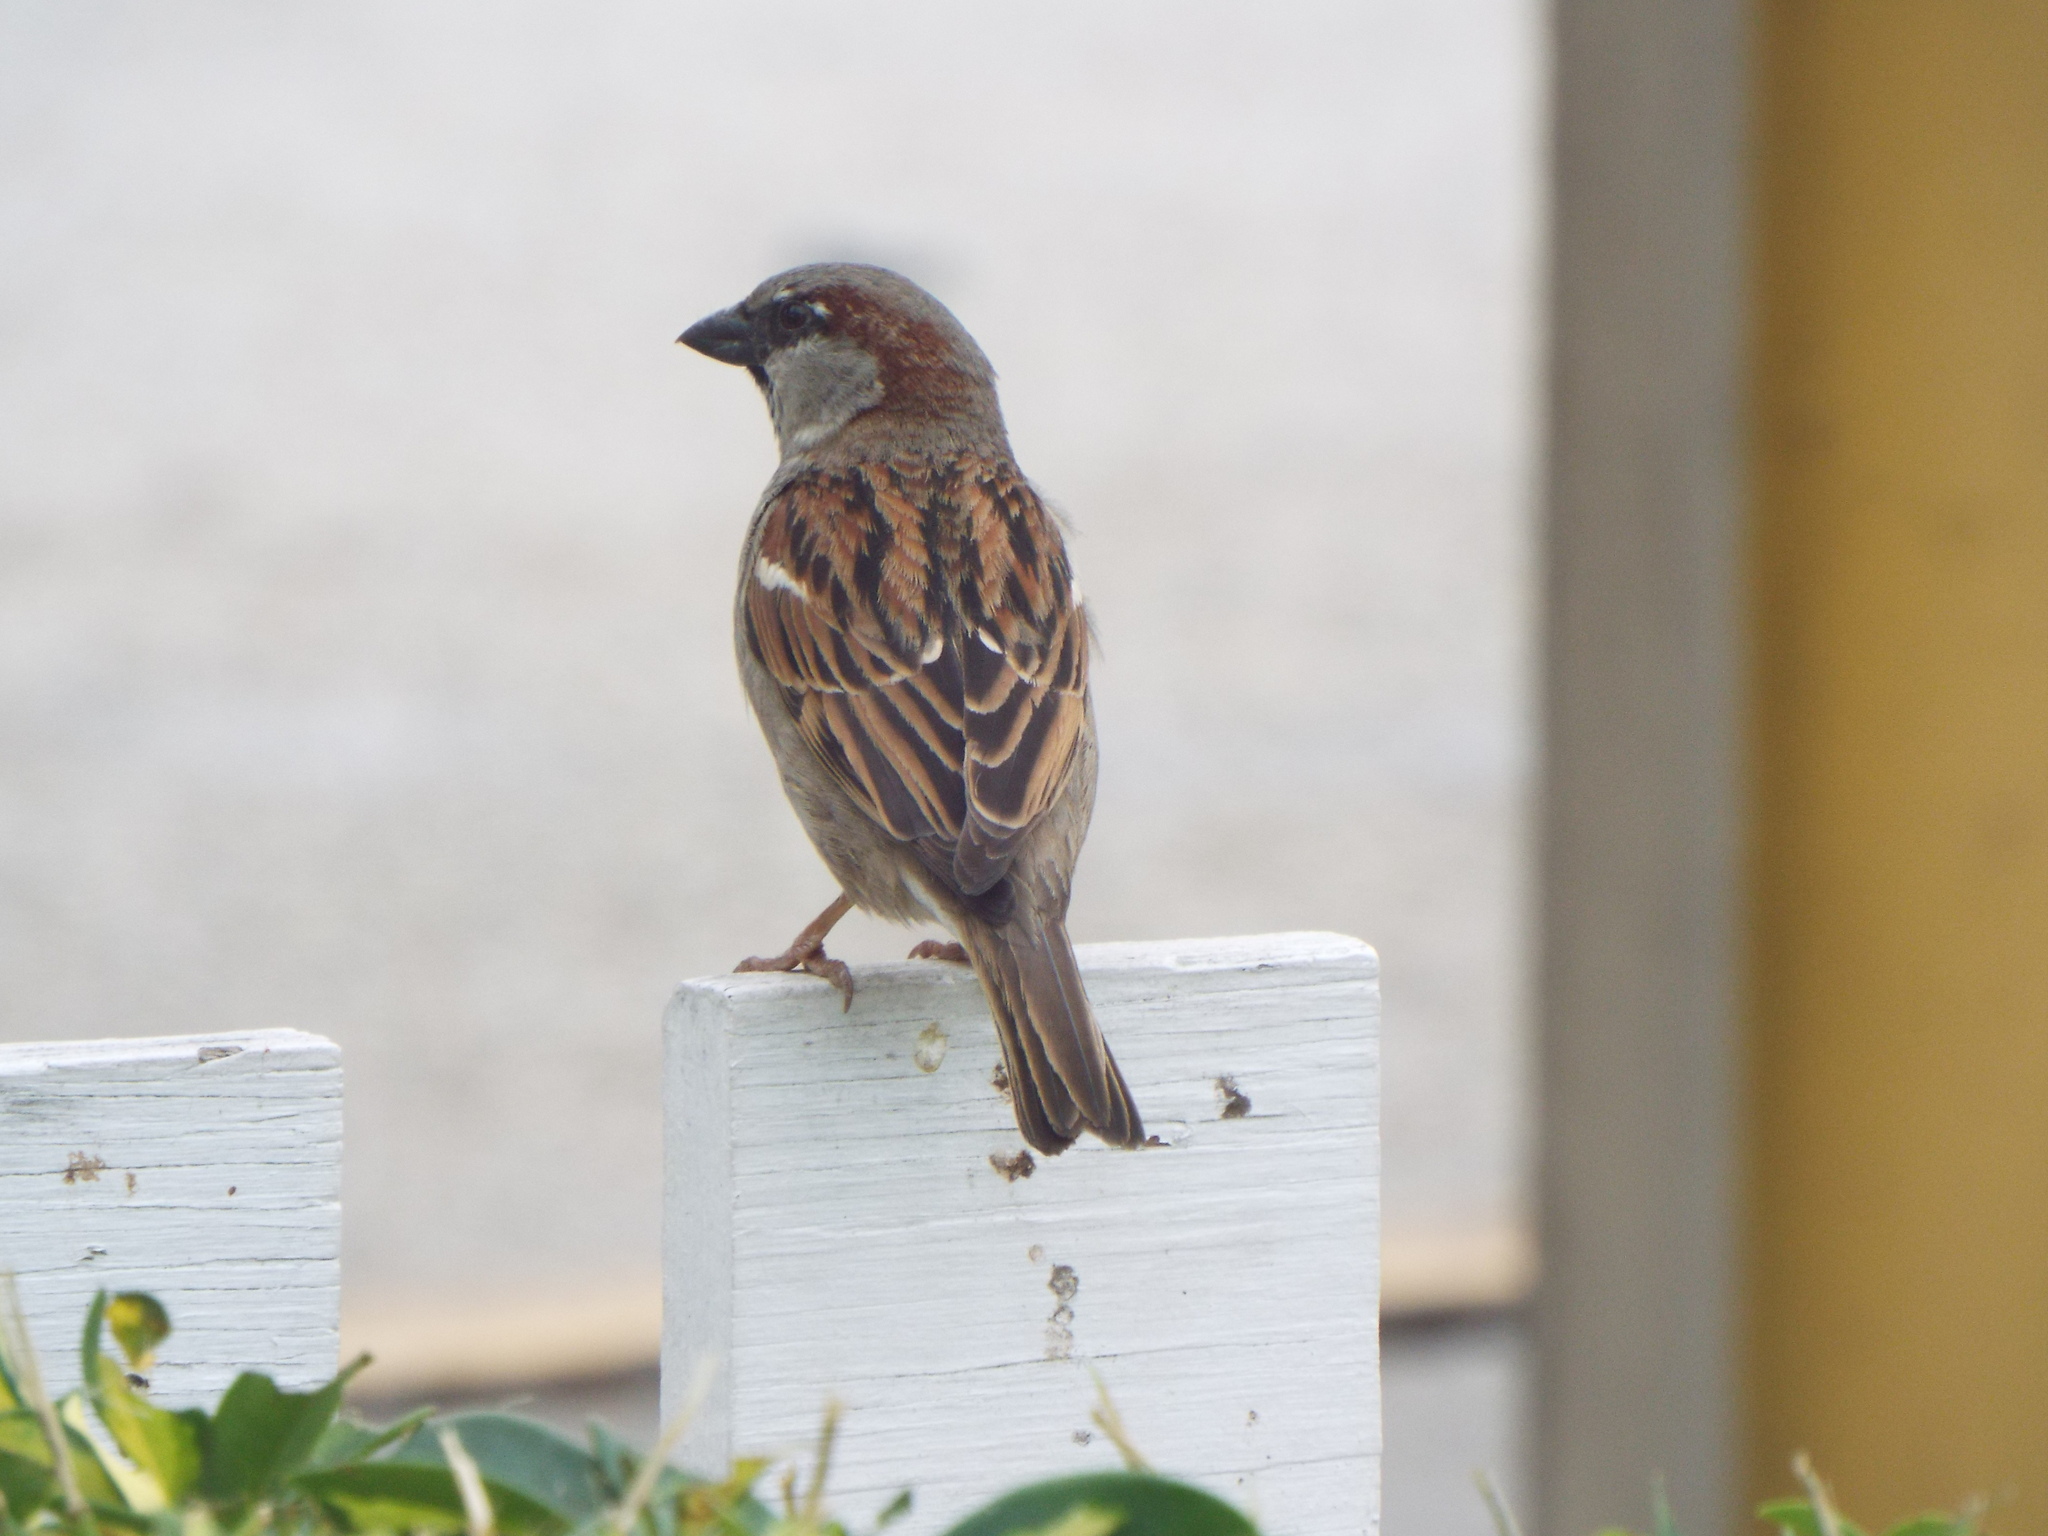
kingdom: Animalia
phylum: Chordata
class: Aves
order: Passeriformes
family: Passeridae
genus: Passer
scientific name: Passer domesticus
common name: House sparrow
